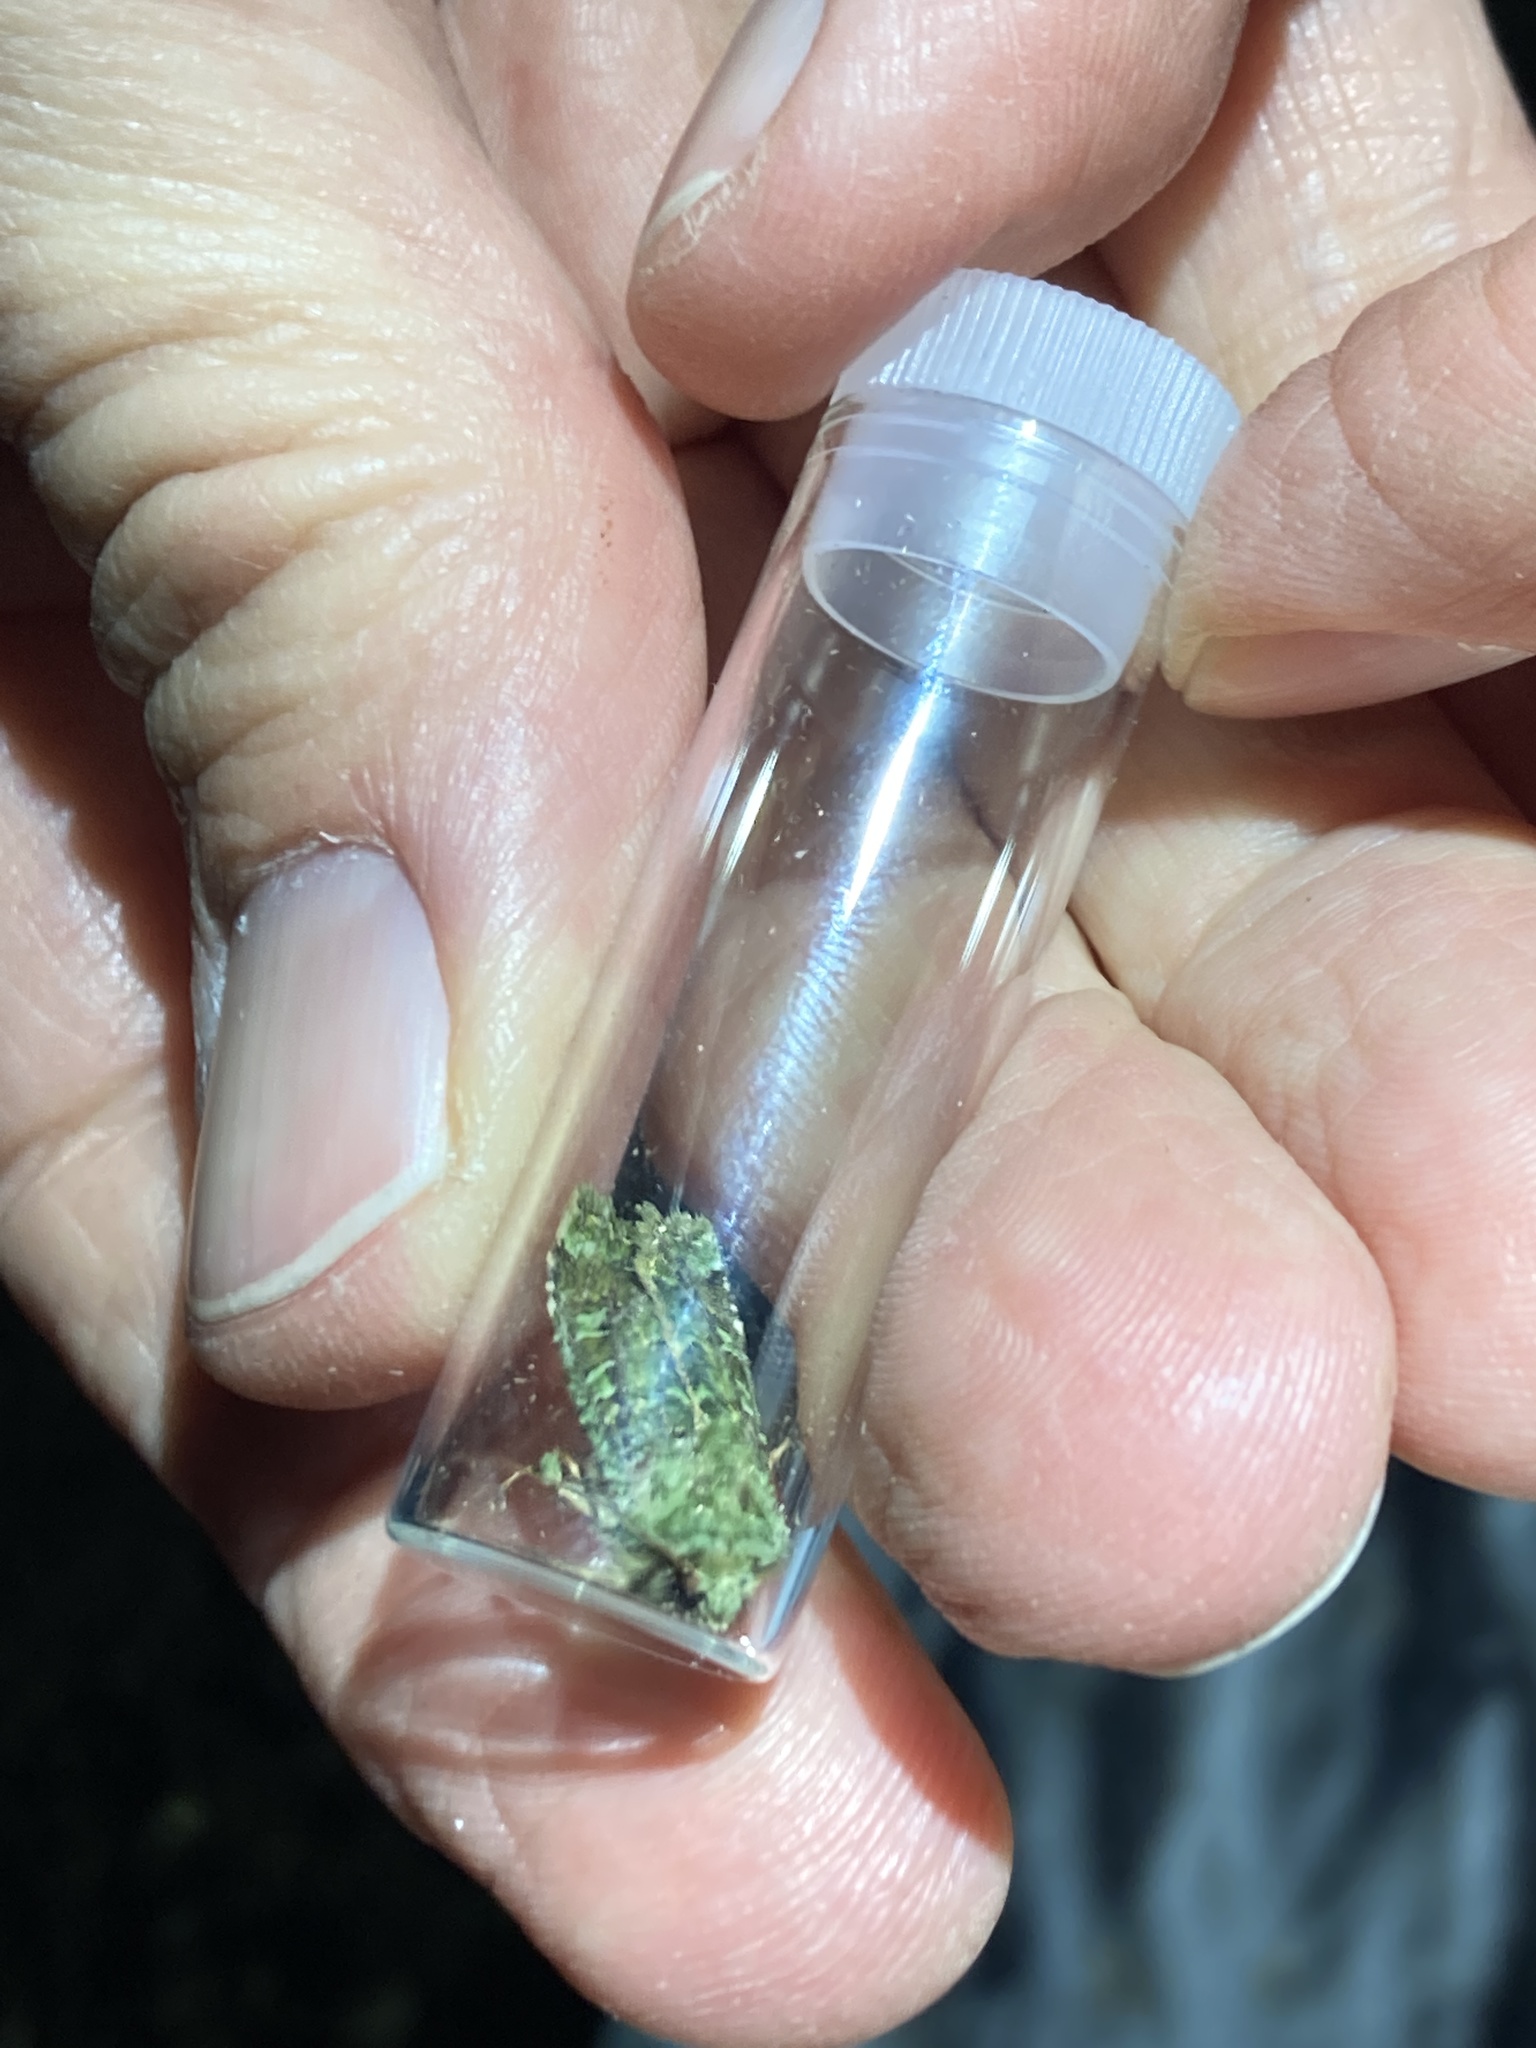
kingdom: Animalia
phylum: Arthropoda
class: Insecta
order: Lepidoptera
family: Noctuidae
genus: Feredayia
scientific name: Feredayia grammosa
